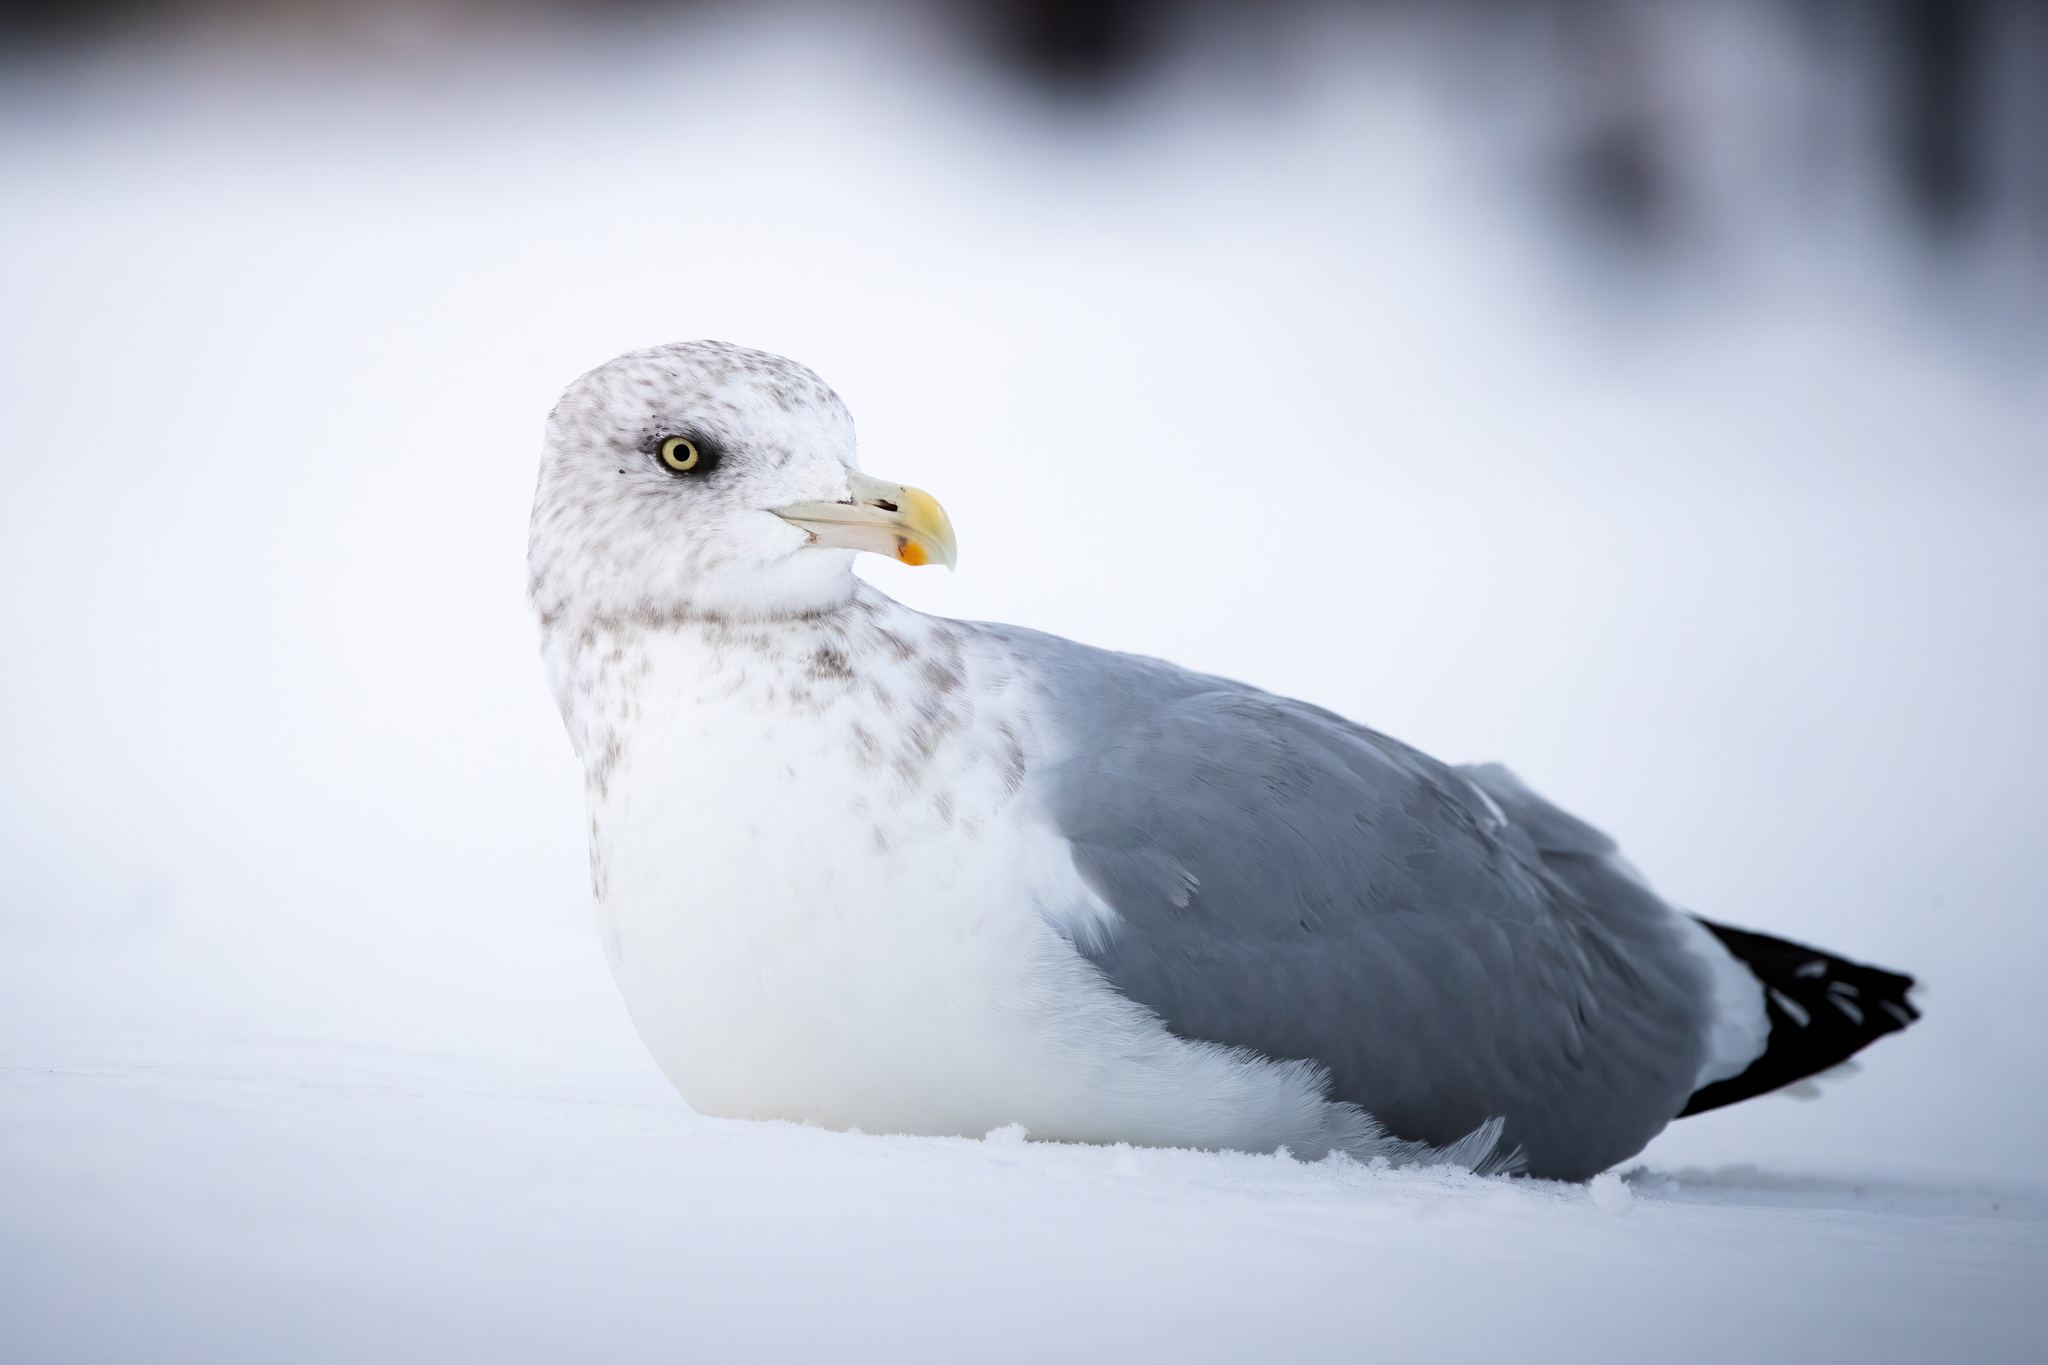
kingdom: Animalia
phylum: Chordata
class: Aves
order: Charadriiformes
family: Laridae
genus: Larus
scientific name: Larus argentatus
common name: Herring gull
